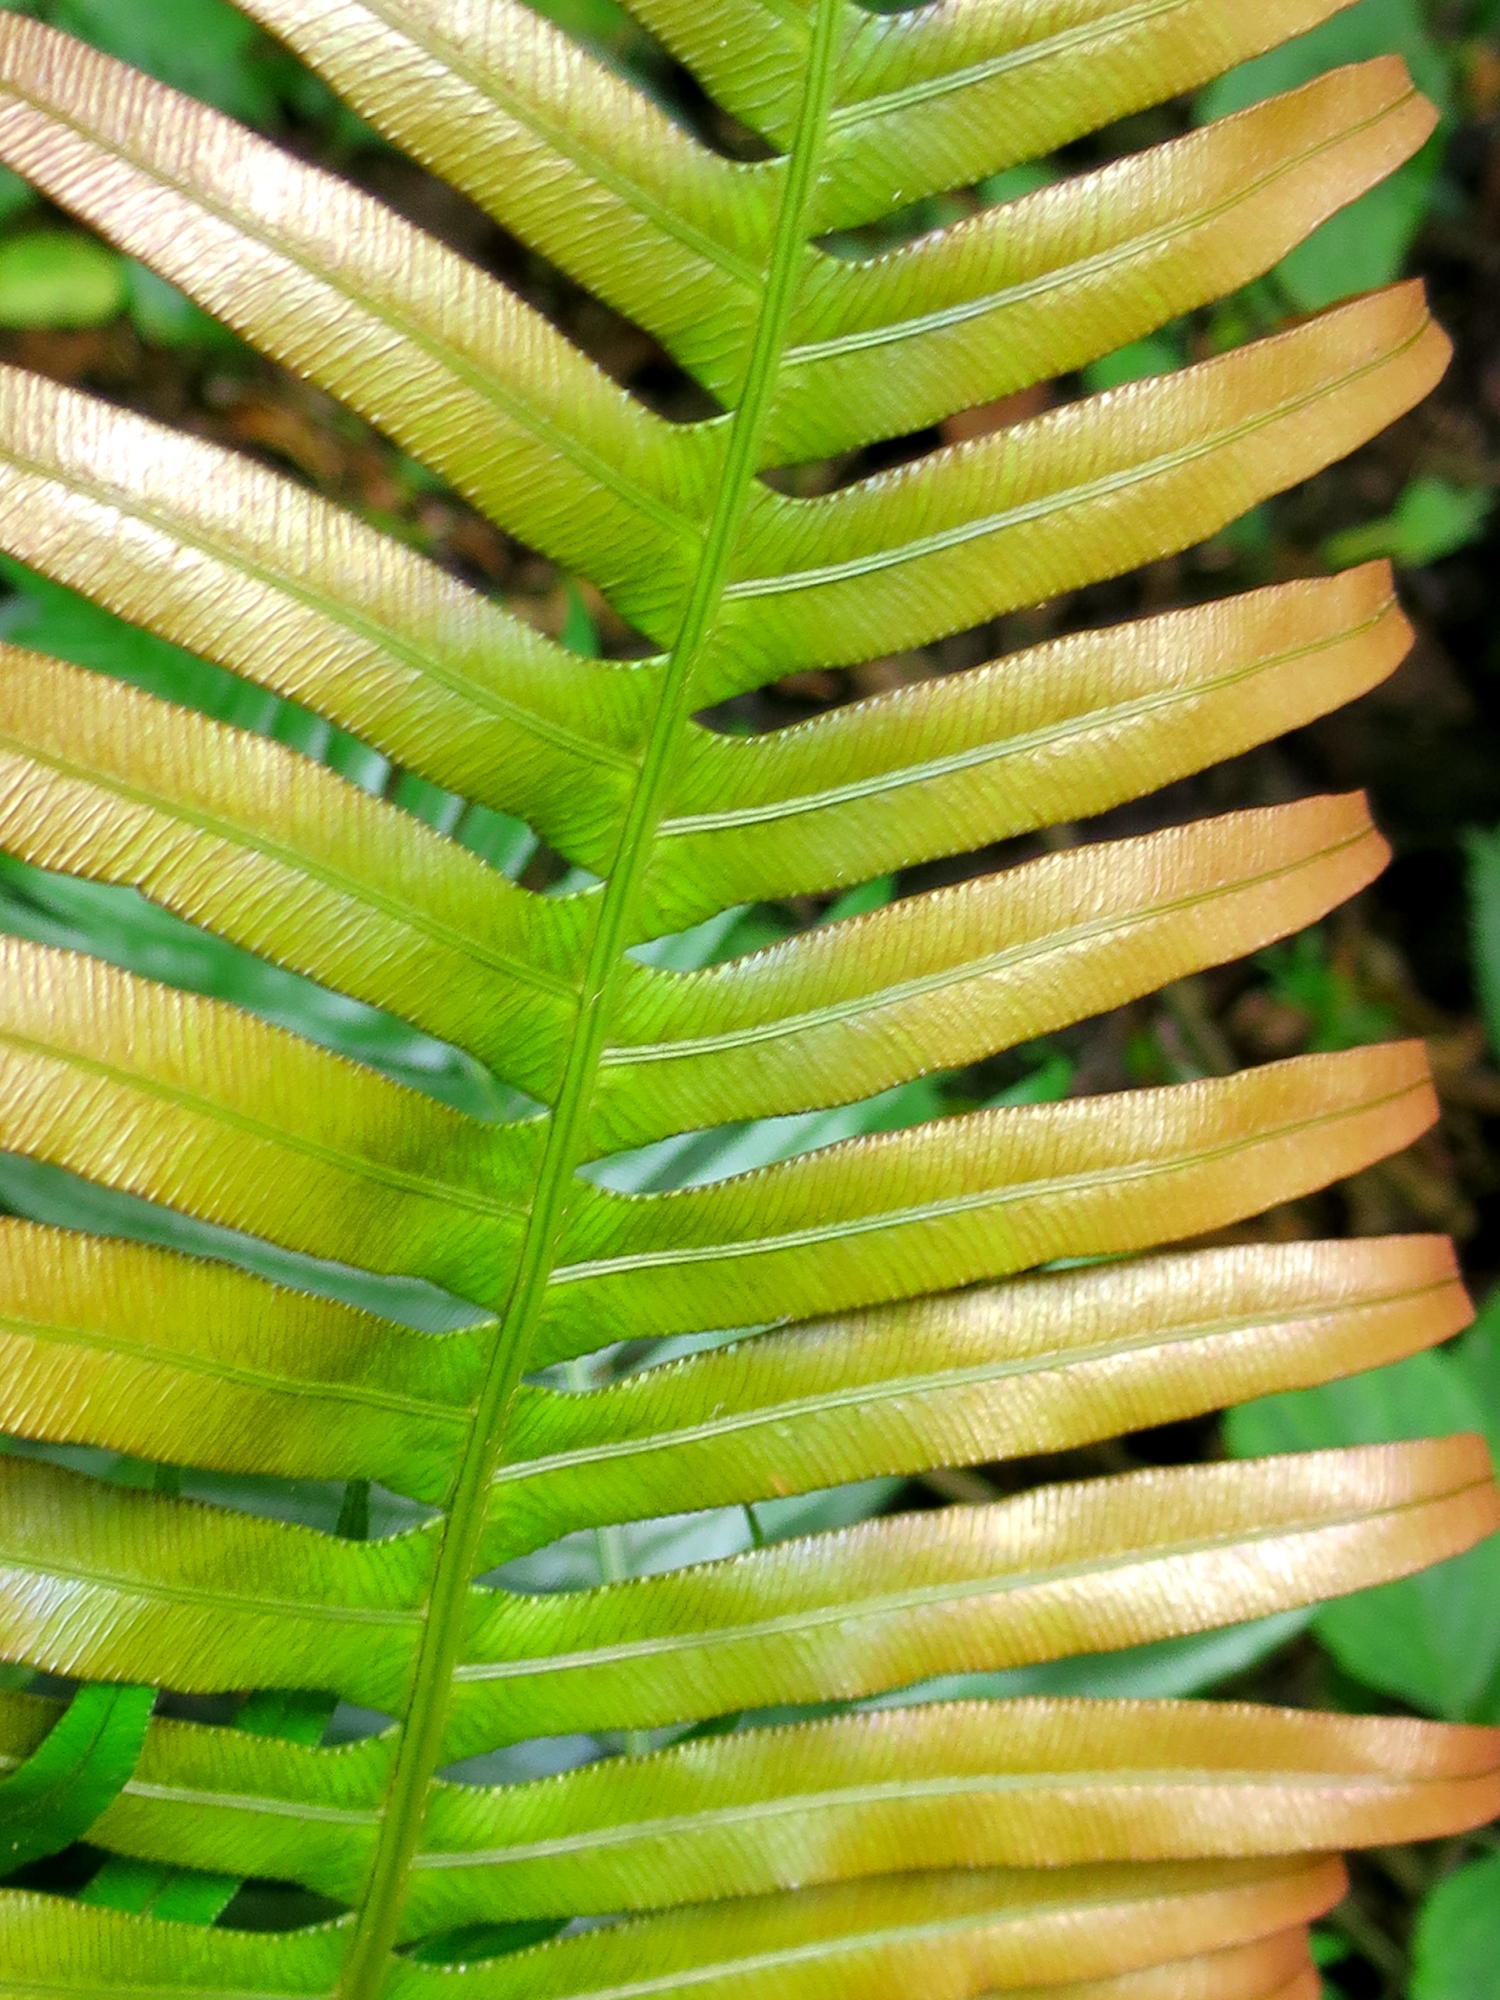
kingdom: Plantae
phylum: Tracheophyta
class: Polypodiopsida
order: Polypodiales
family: Blechnaceae
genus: Lomaridium
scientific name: Lomaridium attenuatum
